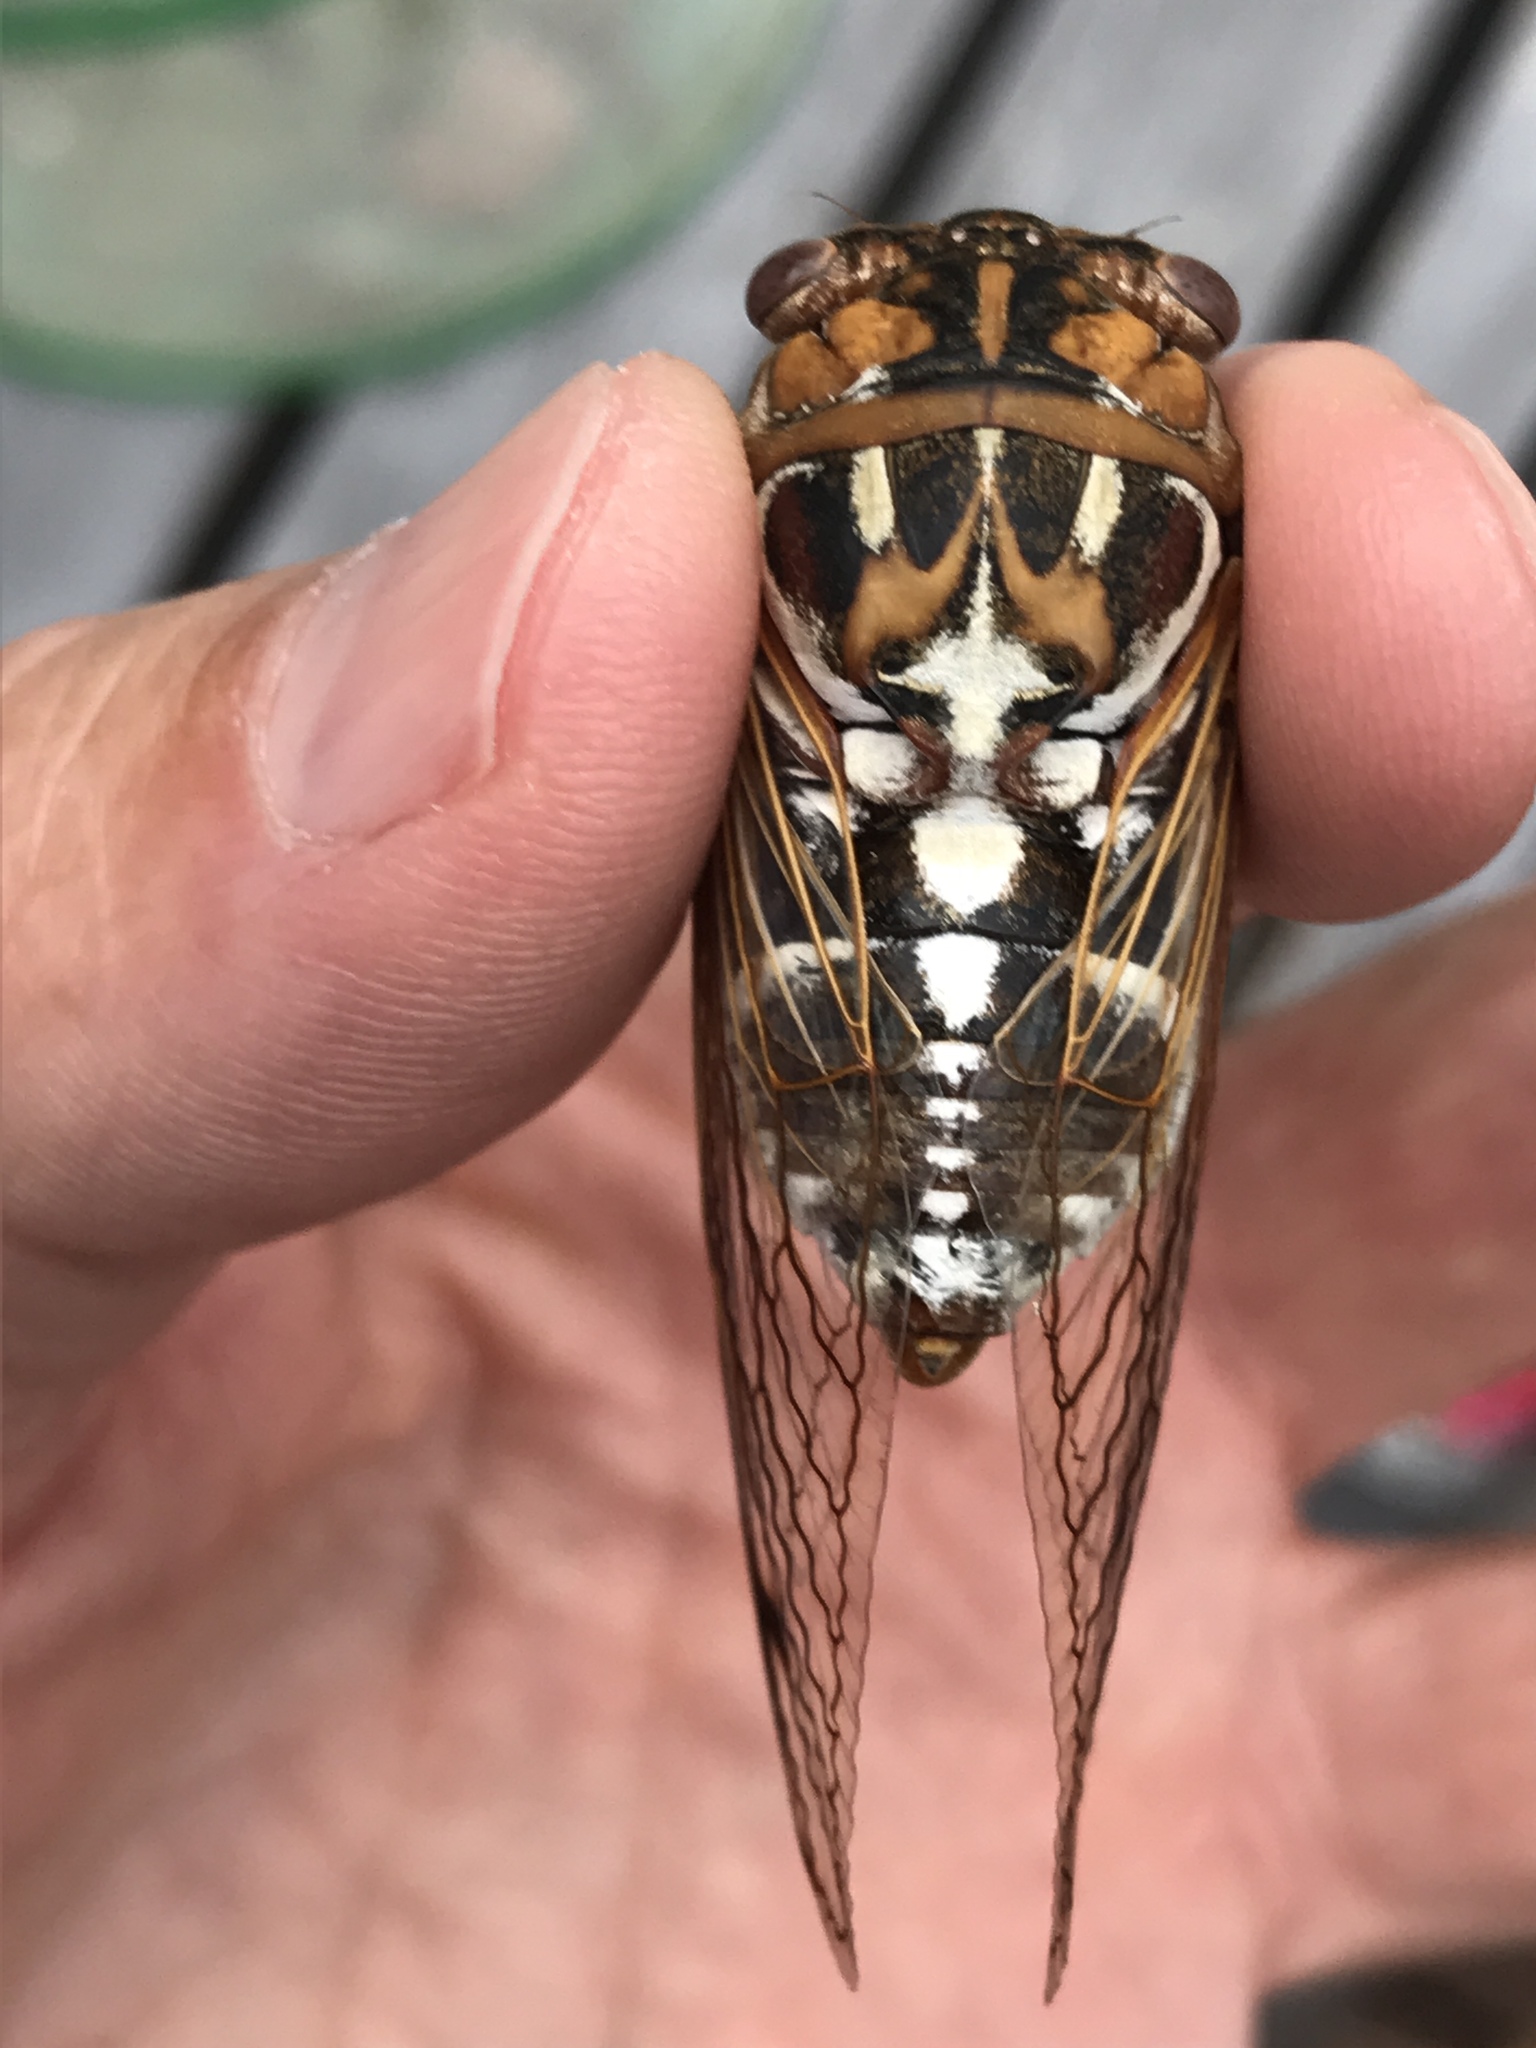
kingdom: Animalia
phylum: Arthropoda
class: Insecta
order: Hemiptera
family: Cicadidae
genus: Megatibicen
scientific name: Megatibicen tremulus
